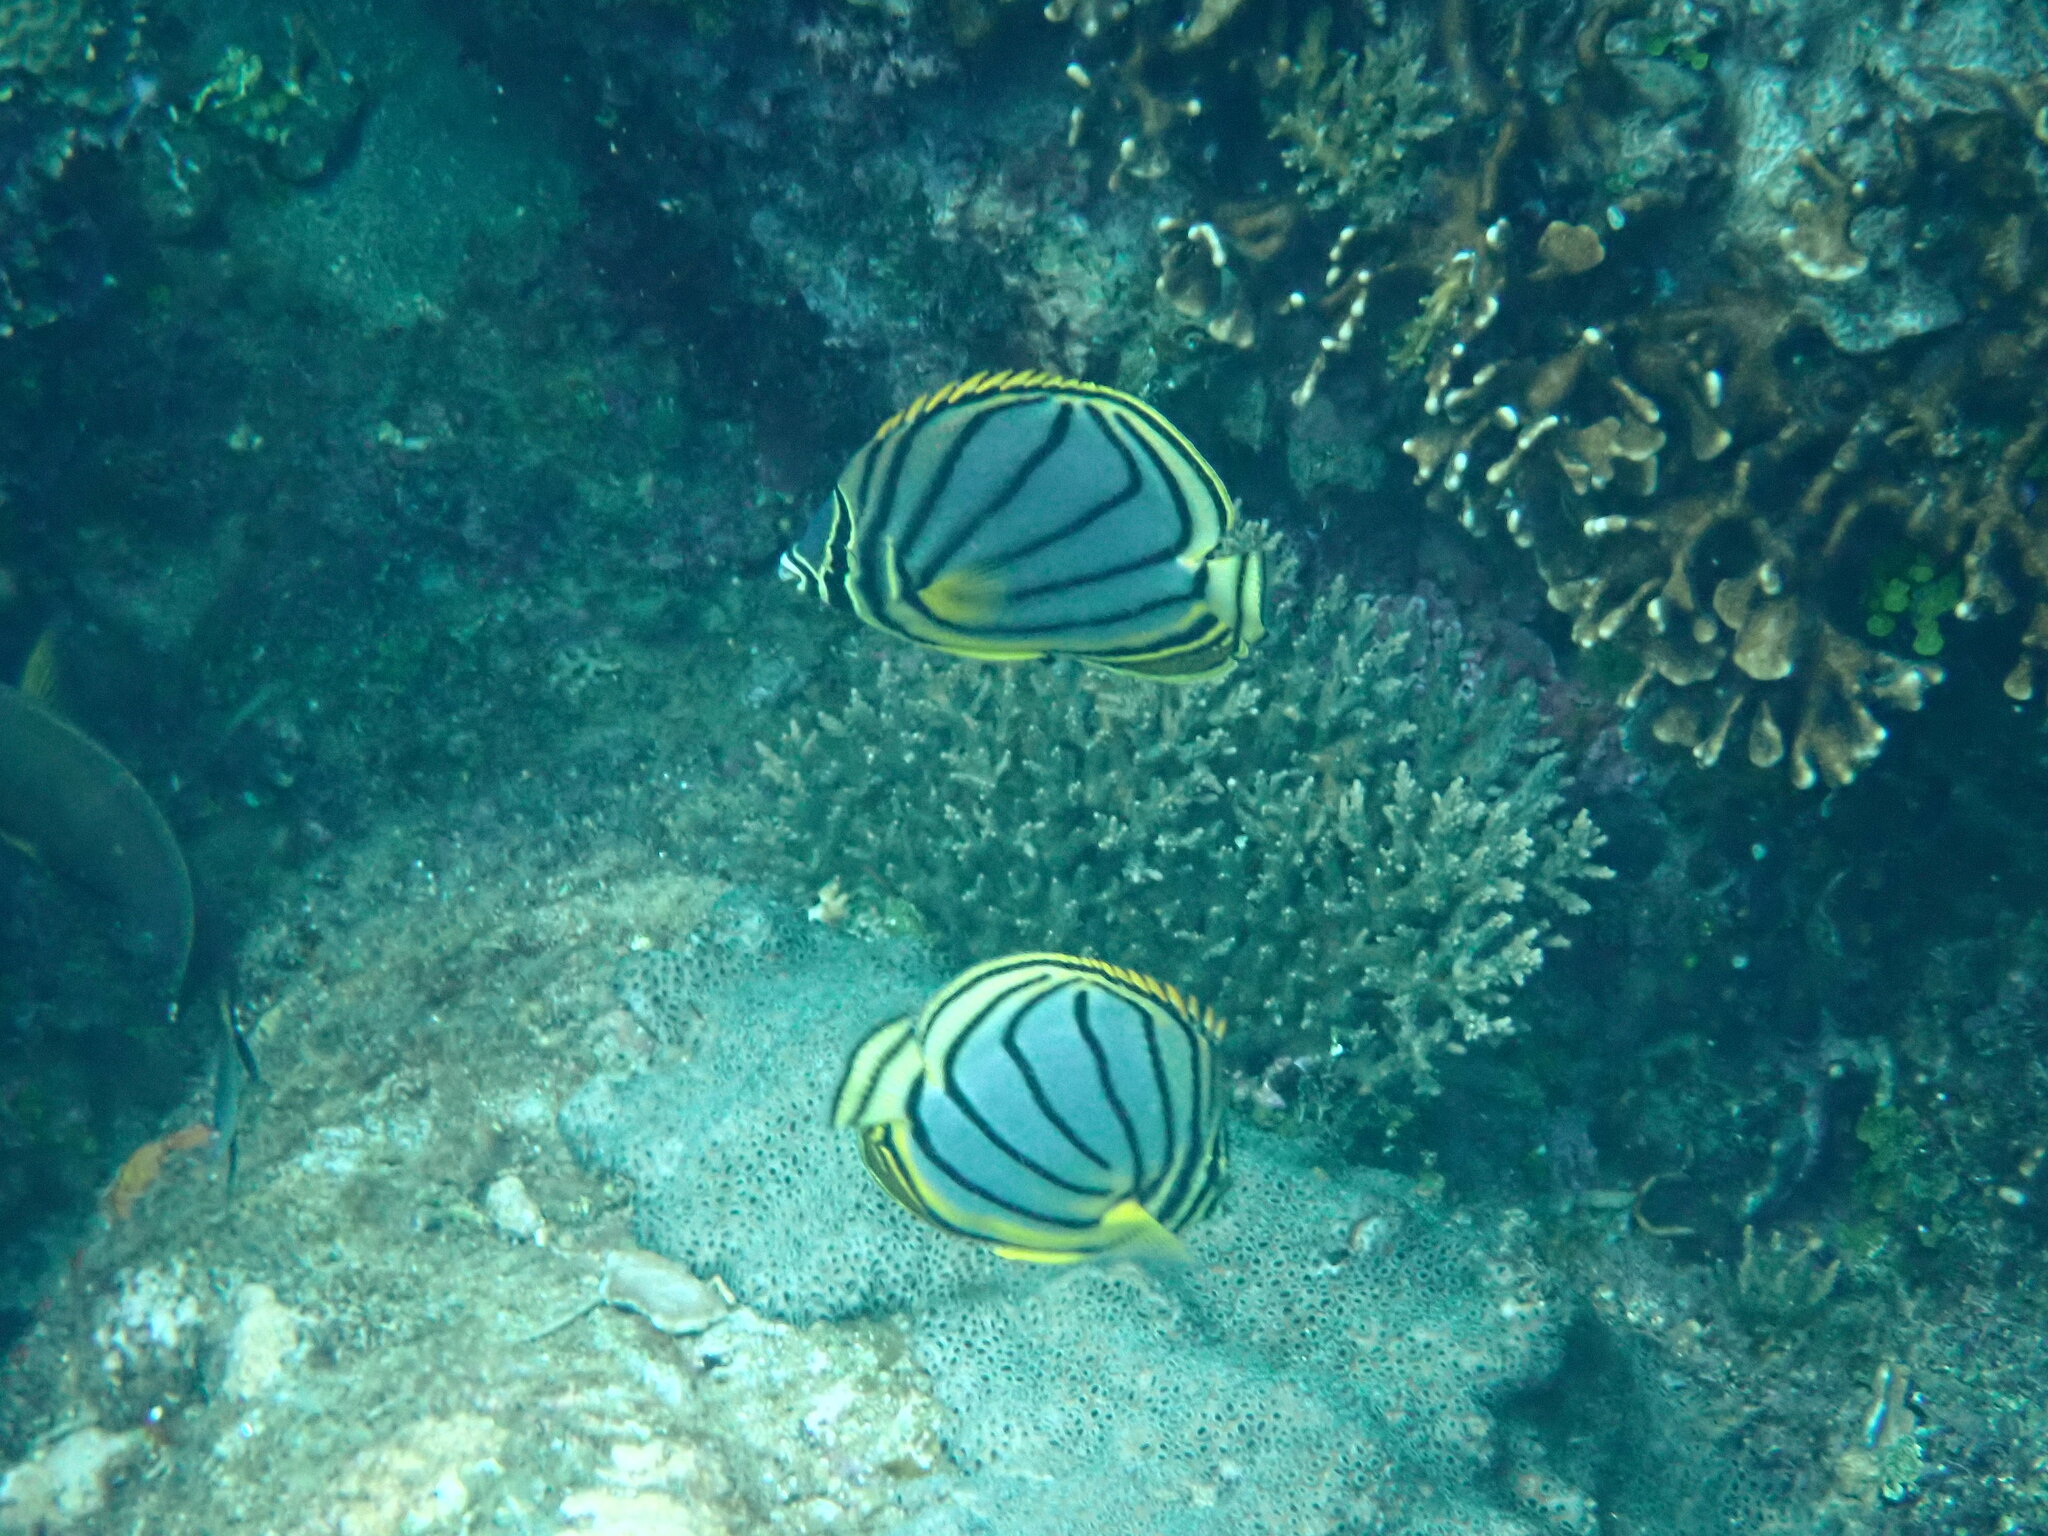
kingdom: Animalia
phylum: Chordata
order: Perciformes
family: Chaetodontidae
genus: Chaetodon
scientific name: Chaetodon meyeri
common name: Meyer's butterflyfish
